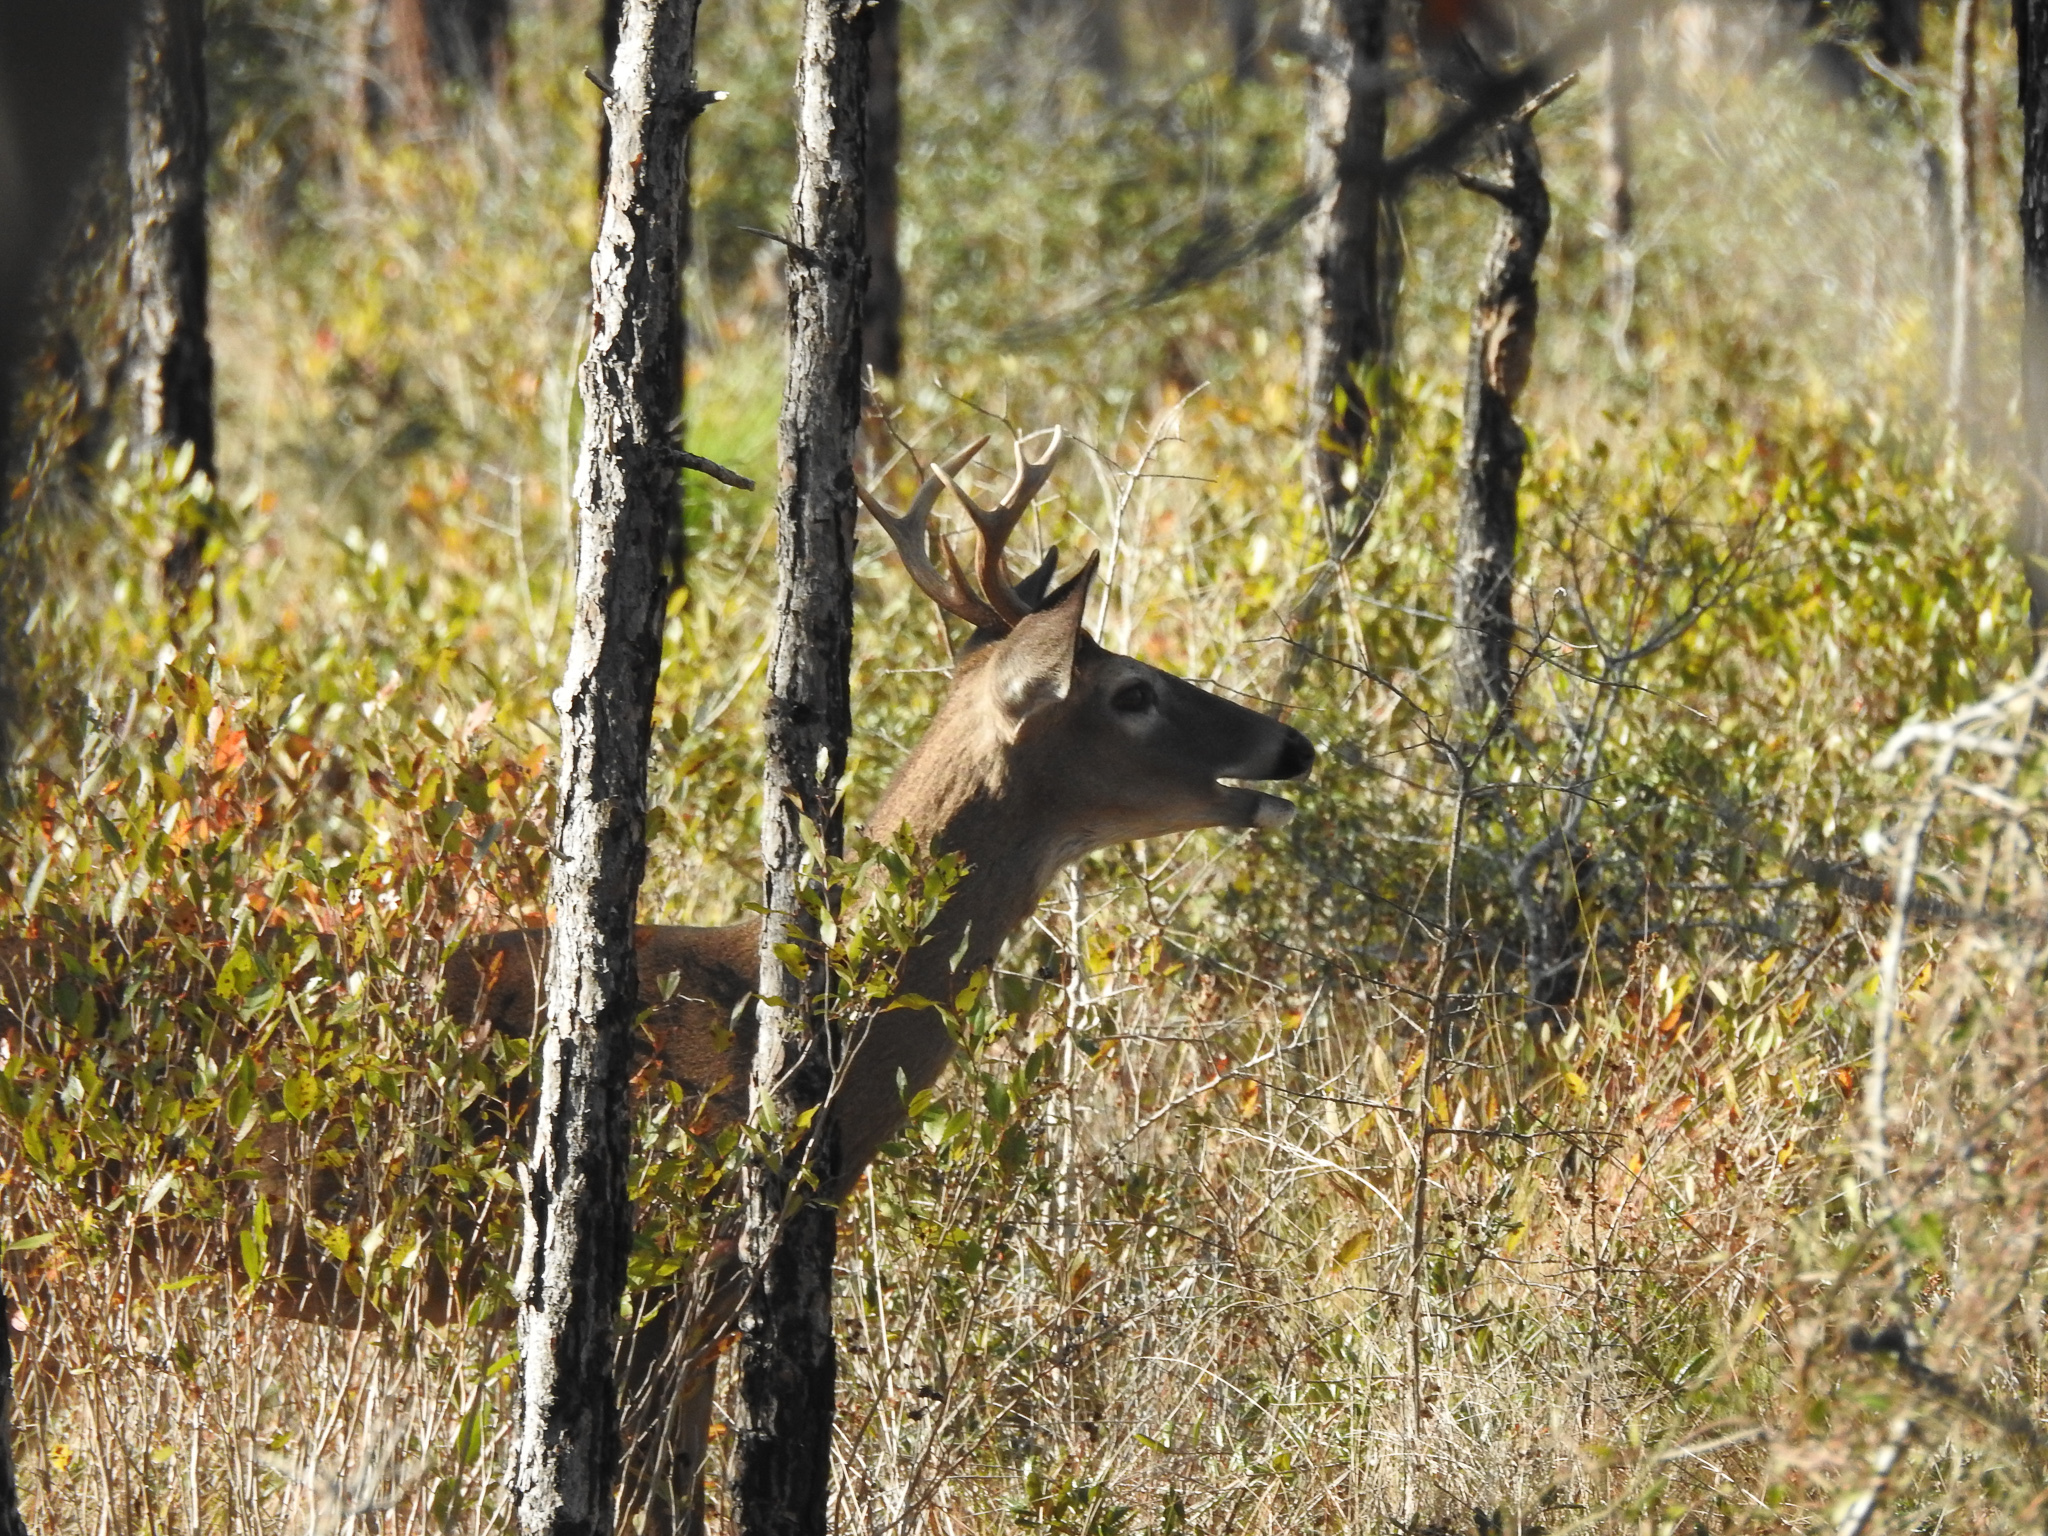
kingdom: Animalia
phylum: Chordata
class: Mammalia
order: Artiodactyla
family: Cervidae
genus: Odocoileus
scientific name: Odocoileus virginianus
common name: White-tailed deer
